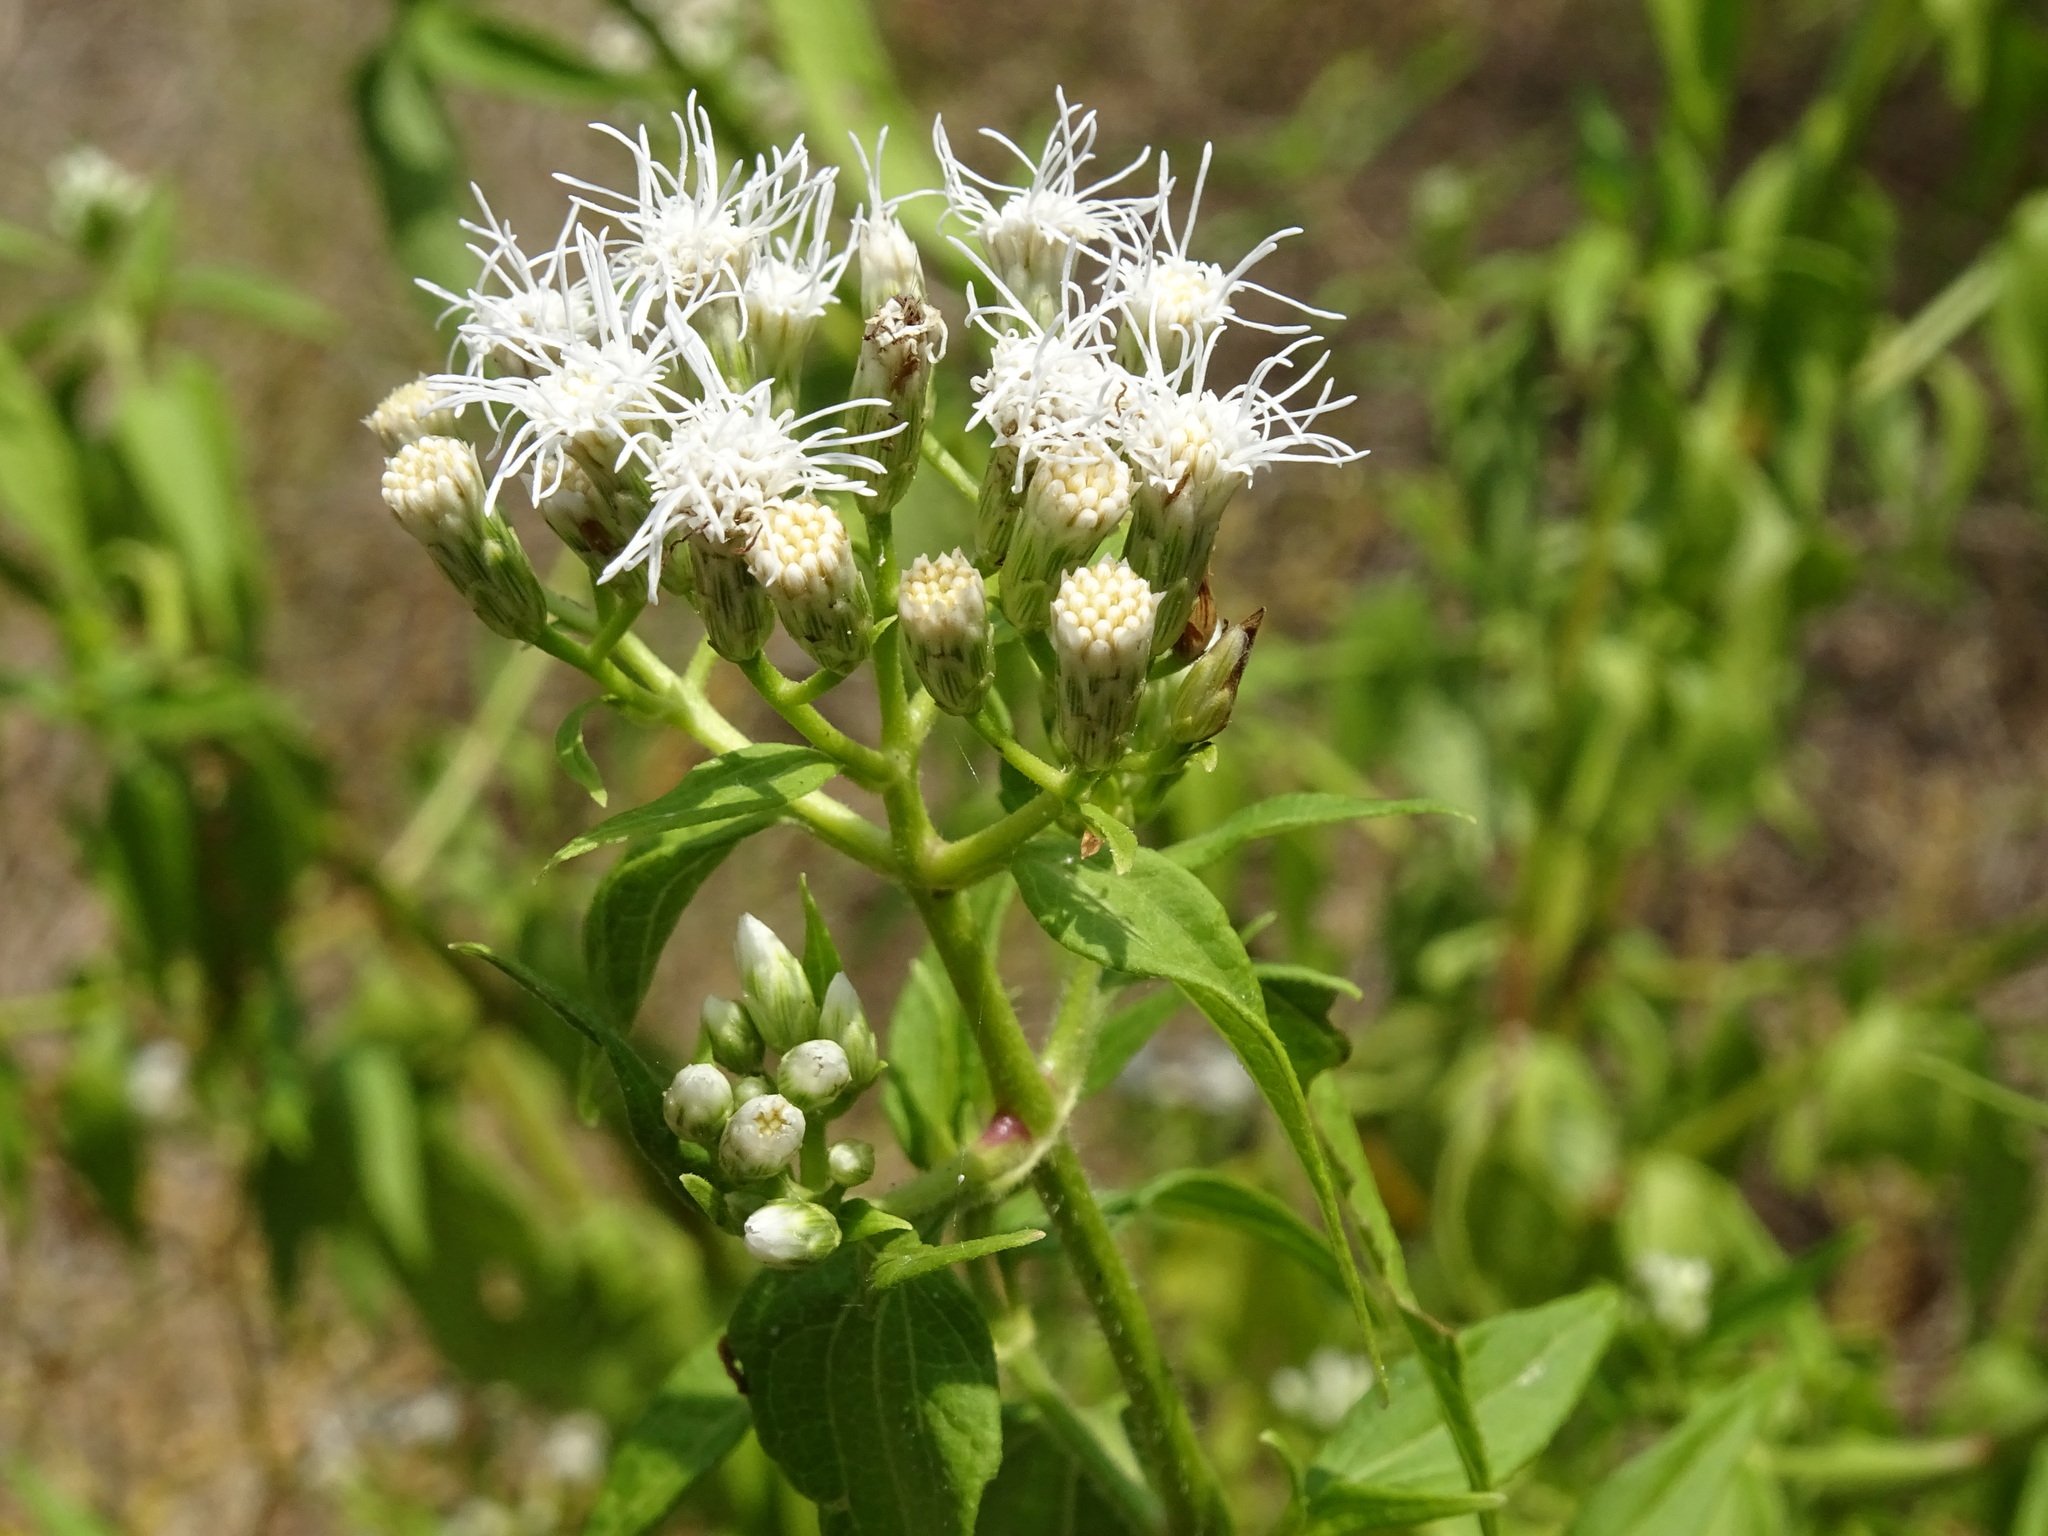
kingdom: Plantae
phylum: Tracheophyta
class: Magnoliopsida
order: Asterales
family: Asteraceae
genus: Chromolaena
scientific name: Chromolaena odorata
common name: Siamweed
